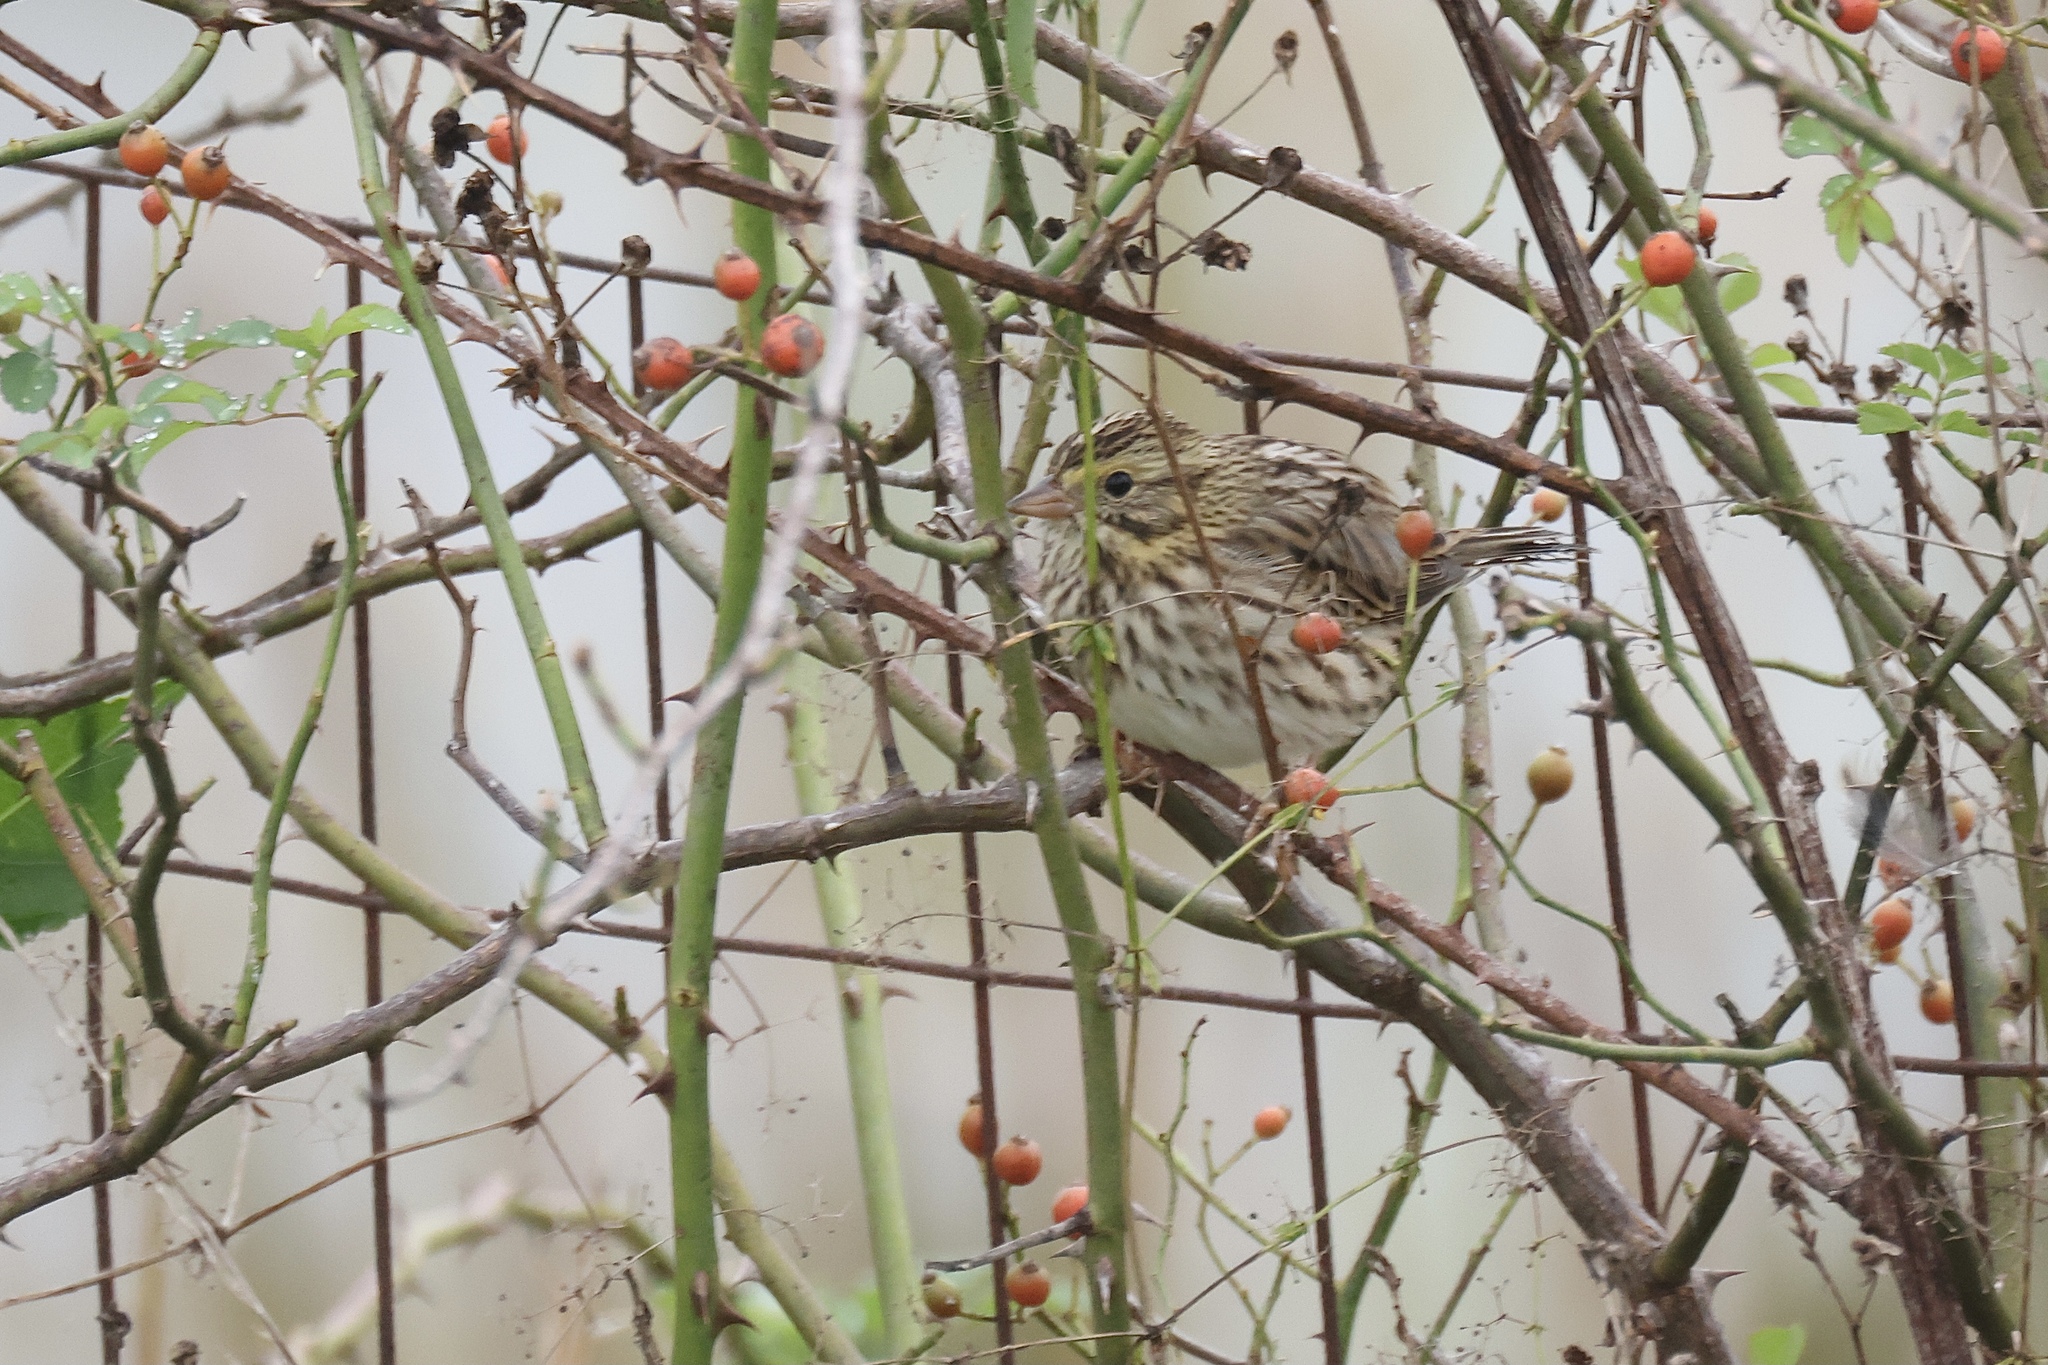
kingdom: Animalia
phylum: Chordata
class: Aves
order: Passeriformes
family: Passerellidae
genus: Passerculus
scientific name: Passerculus sandwichensis
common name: Savannah sparrow
